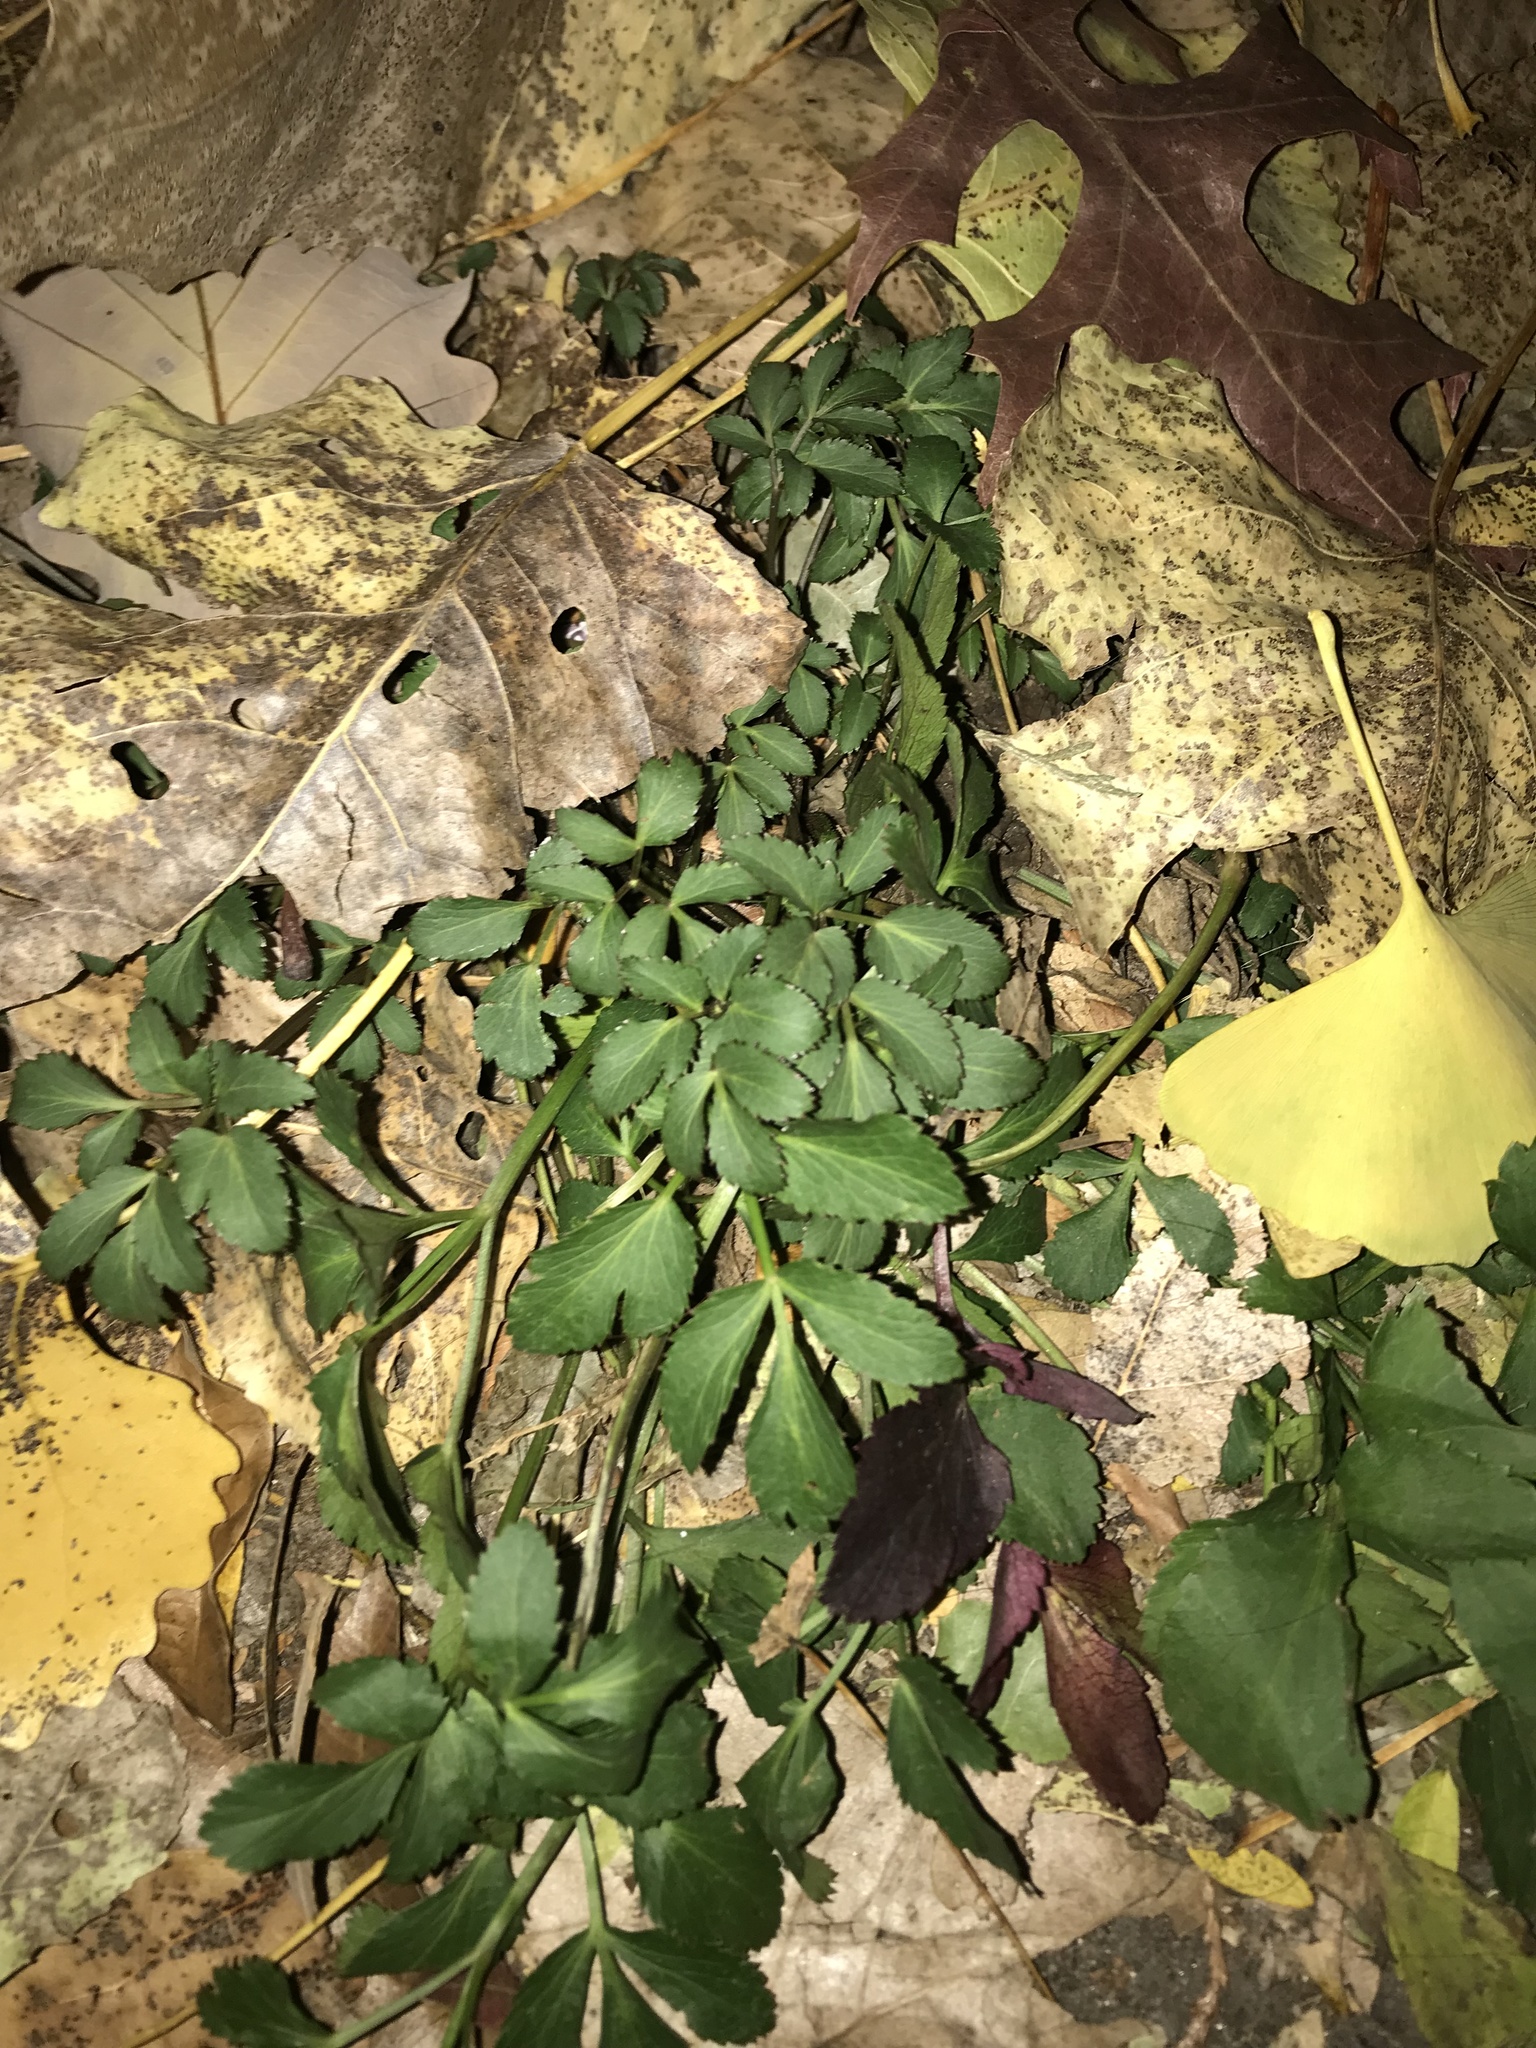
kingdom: Plantae
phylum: Tracheophyta
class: Magnoliopsida
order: Apiales
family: Apiaceae
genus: Zizia
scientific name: Zizia aurea
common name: Golden alexanders
